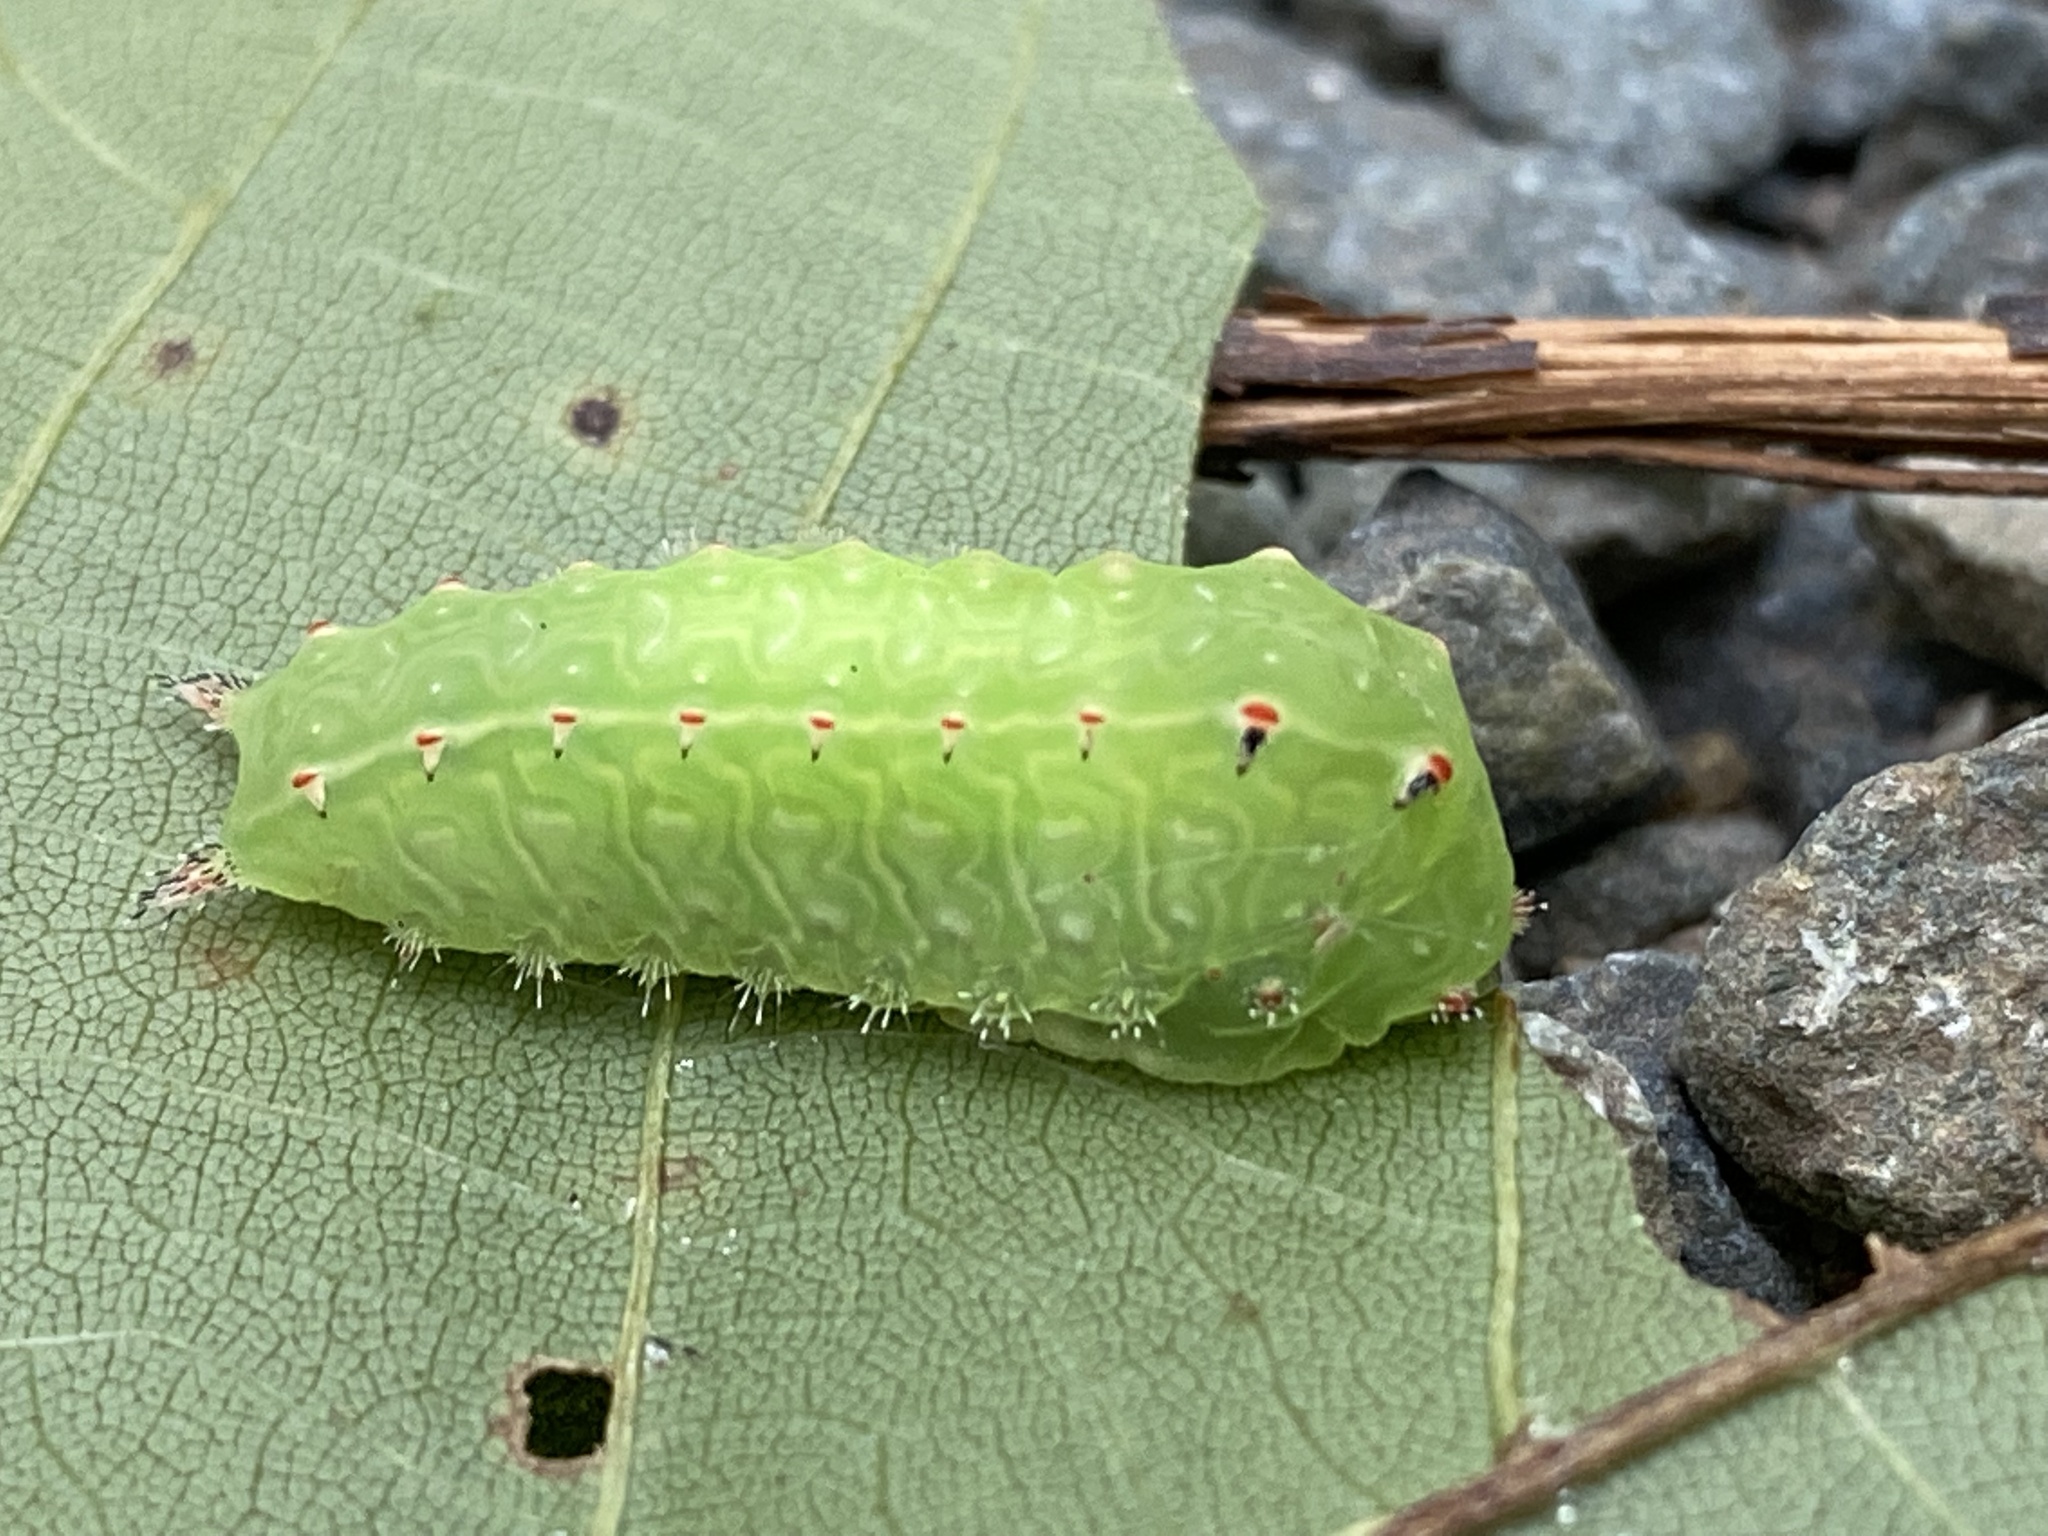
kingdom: Animalia
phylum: Arthropoda
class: Insecta
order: Lepidoptera
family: Limacodidae
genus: Natada
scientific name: Natada nasoni
